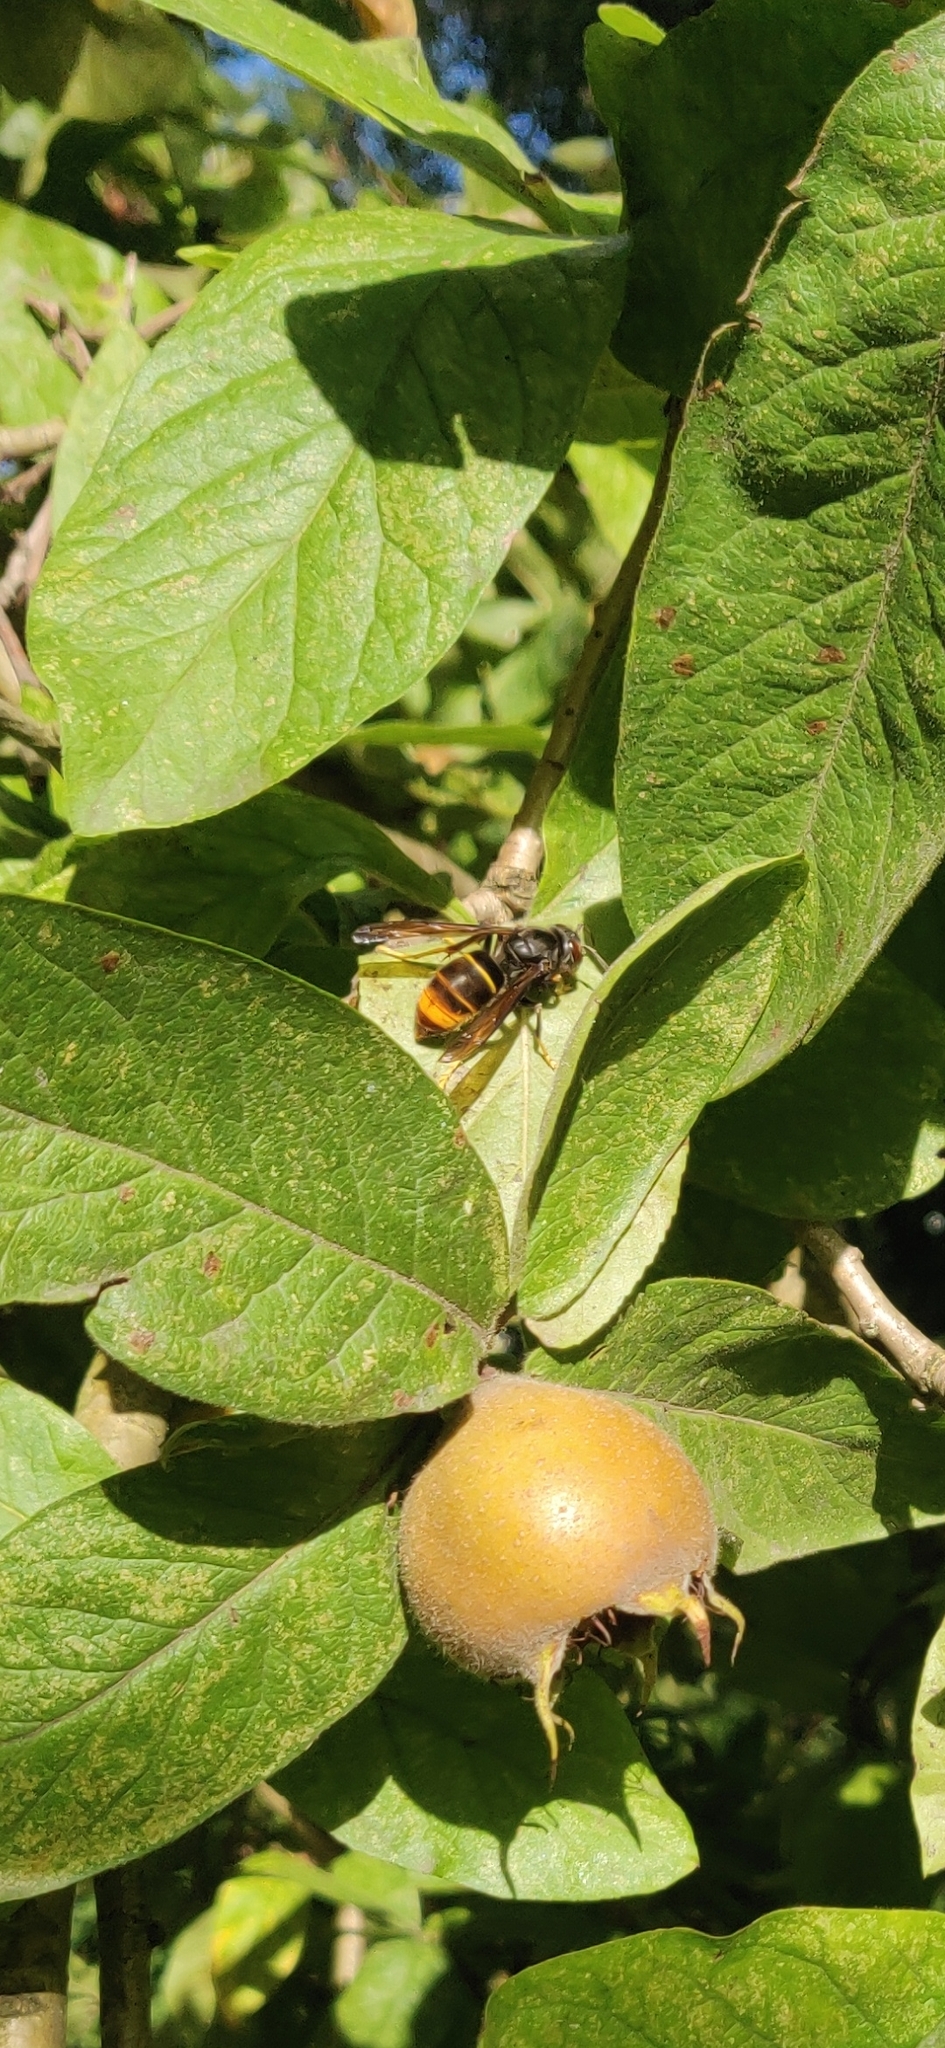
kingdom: Animalia
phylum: Arthropoda
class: Insecta
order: Hymenoptera
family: Vespidae
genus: Vespa
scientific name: Vespa velutina
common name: Asian hornet
